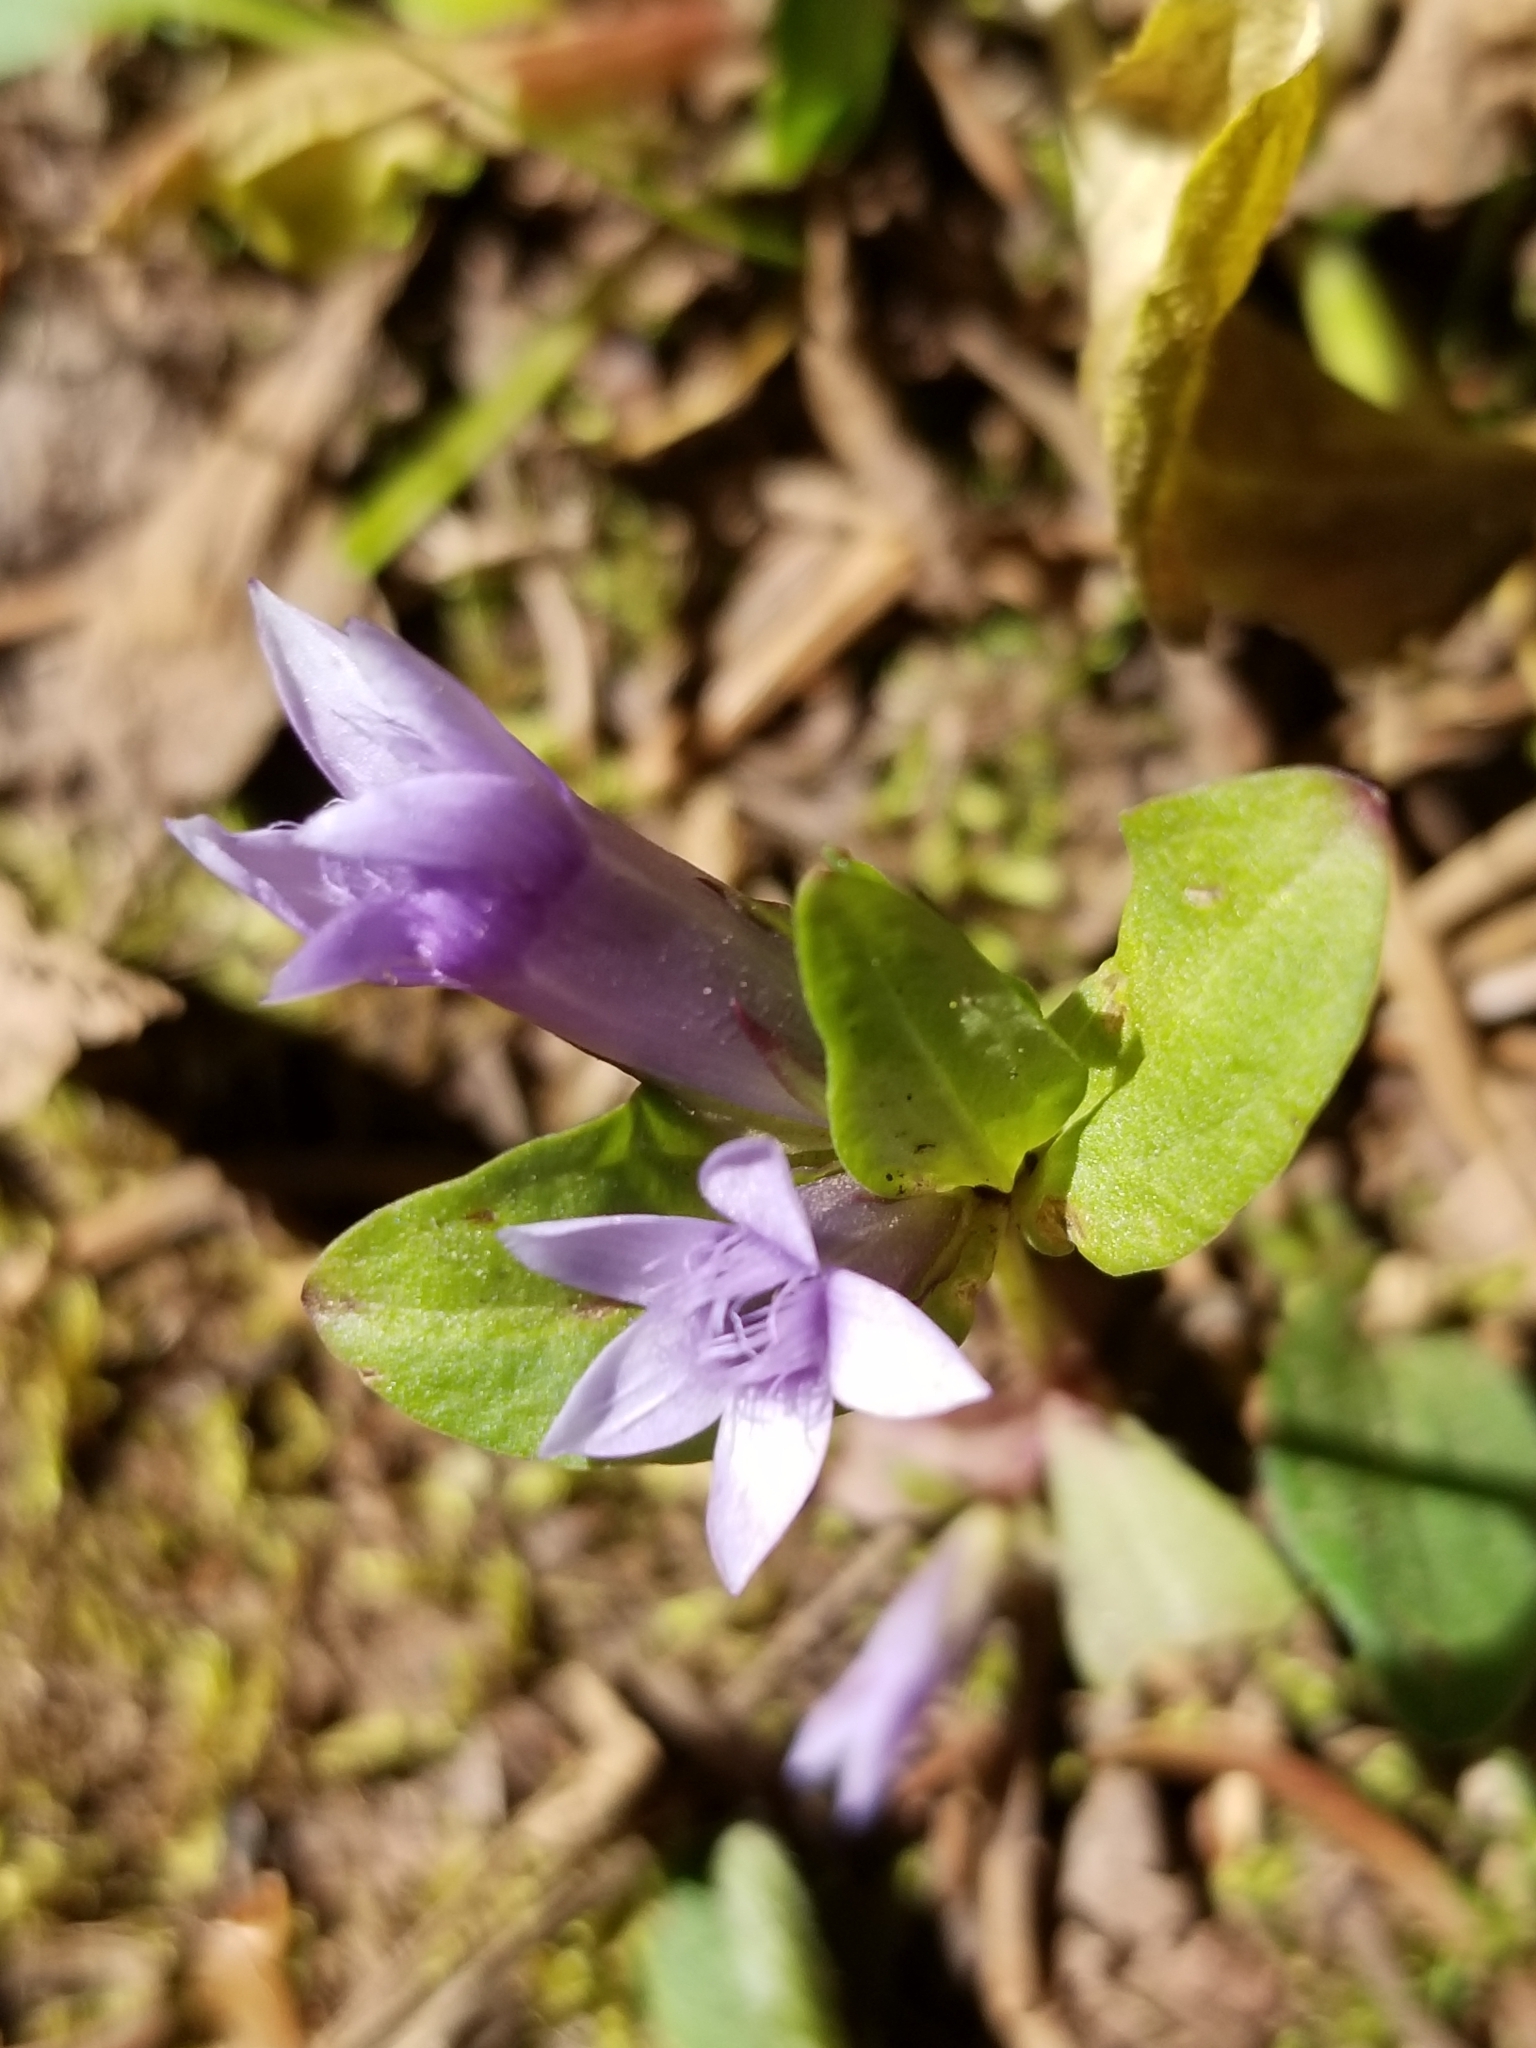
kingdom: Plantae
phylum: Tracheophyta
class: Magnoliopsida
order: Gentianales
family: Gentianaceae
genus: Gentianella
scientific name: Gentianella amarella
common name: Autumn gentian
